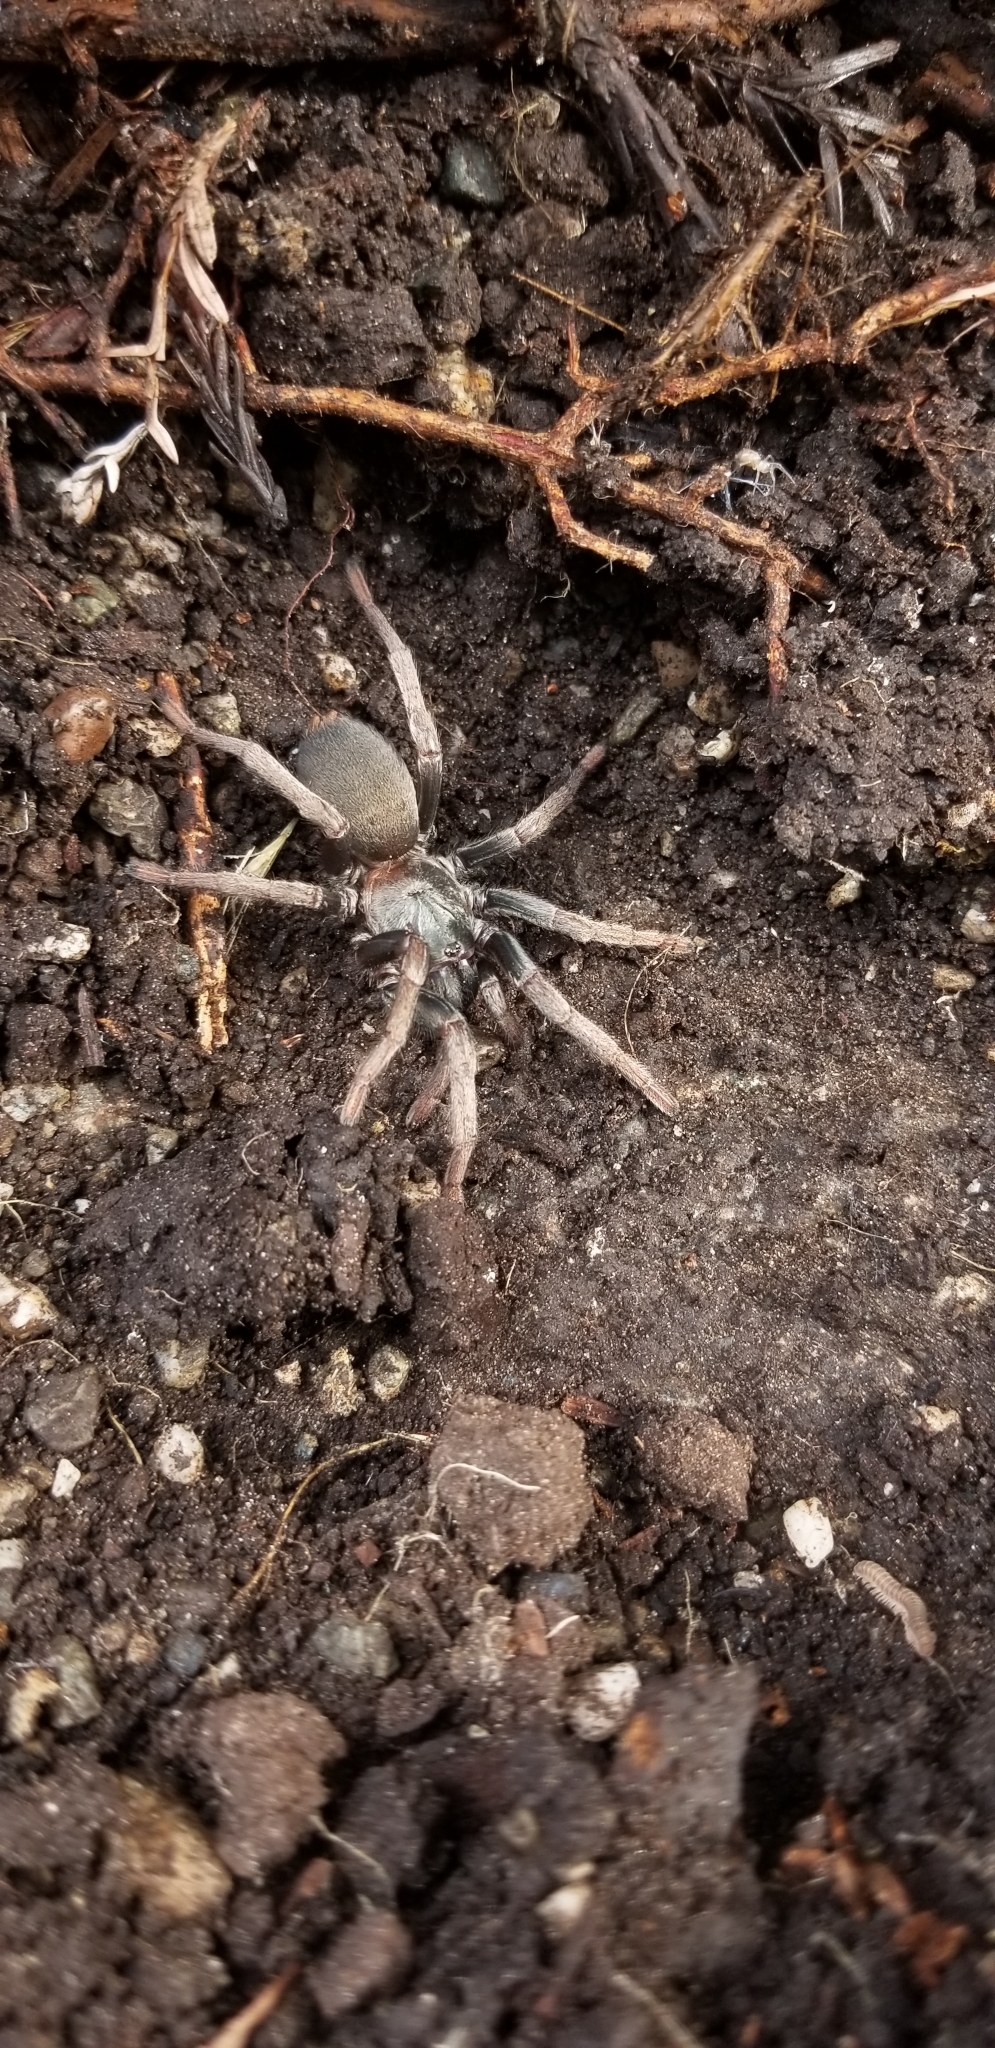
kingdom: Animalia
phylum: Arthropoda
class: Arachnida
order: Araneae
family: Nemesiidae
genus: Calisoga
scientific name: Calisoga longitarsis
